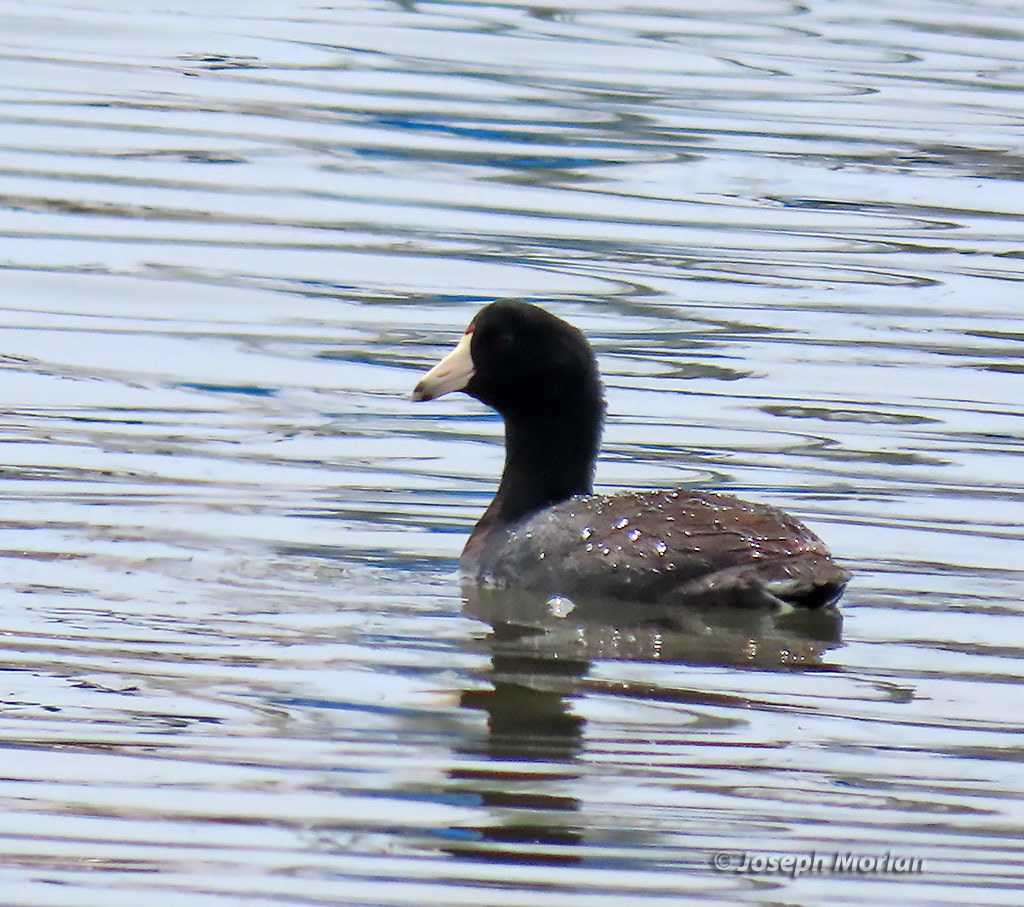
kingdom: Animalia
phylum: Chordata
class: Aves
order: Gruiformes
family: Rallidae
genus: Fulica
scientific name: Fulica americana
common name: American coot
